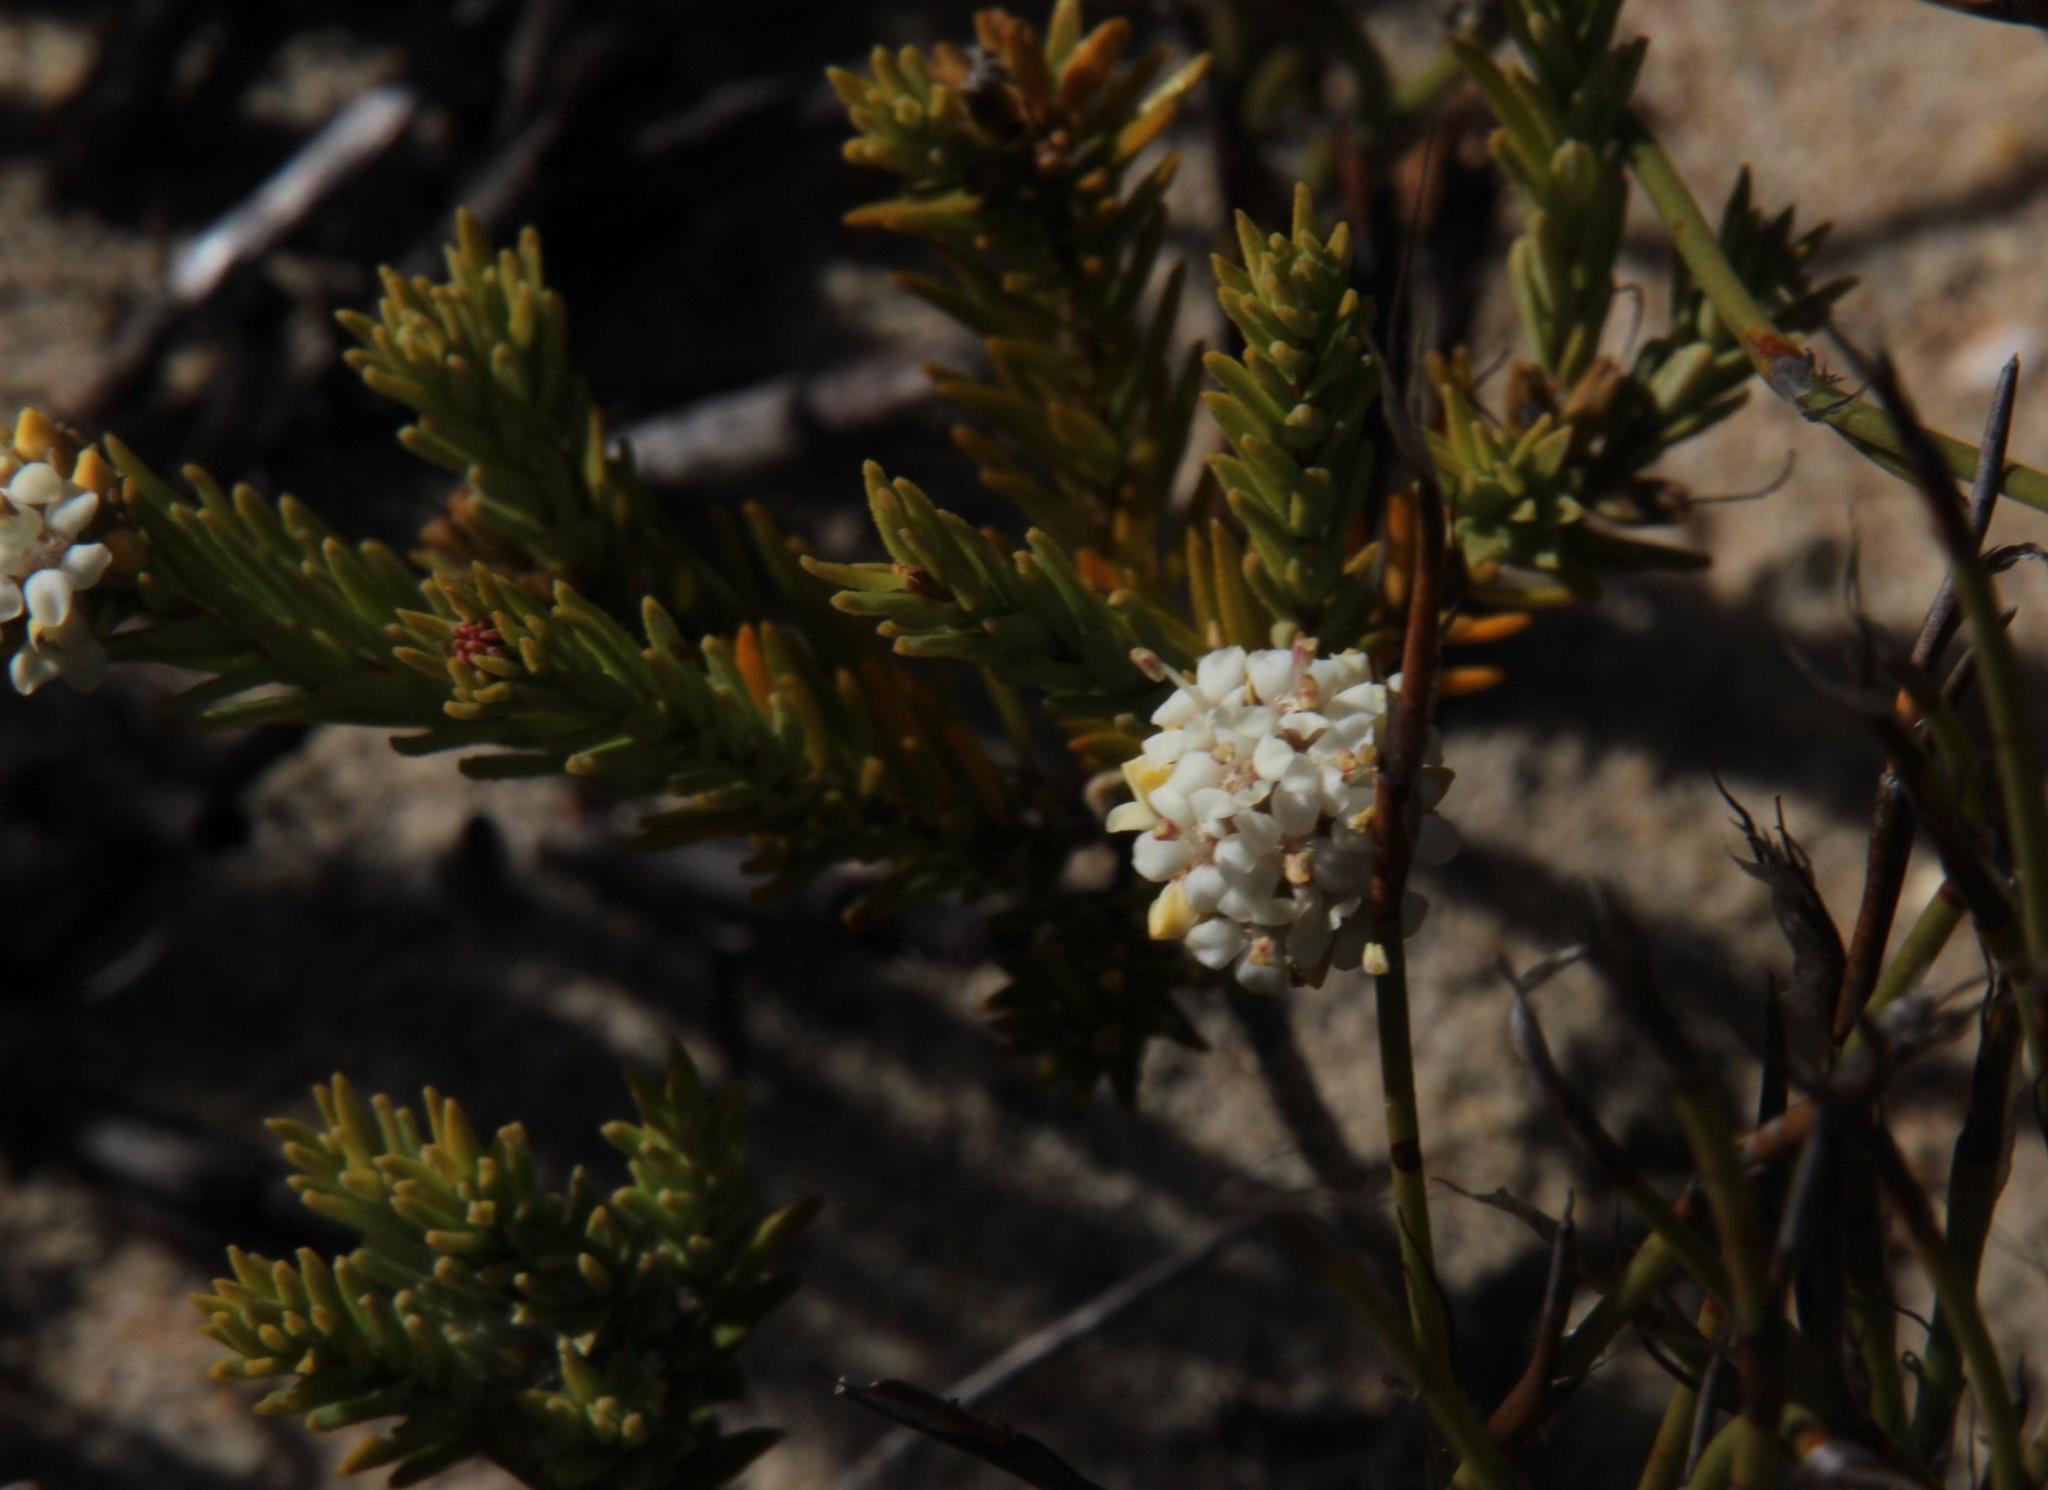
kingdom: Plantae
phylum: Tracheophyta
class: Magnoliopsida
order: Sapindales
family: Rutaceae
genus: Macrostylis
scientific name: Macrostylis villosa
